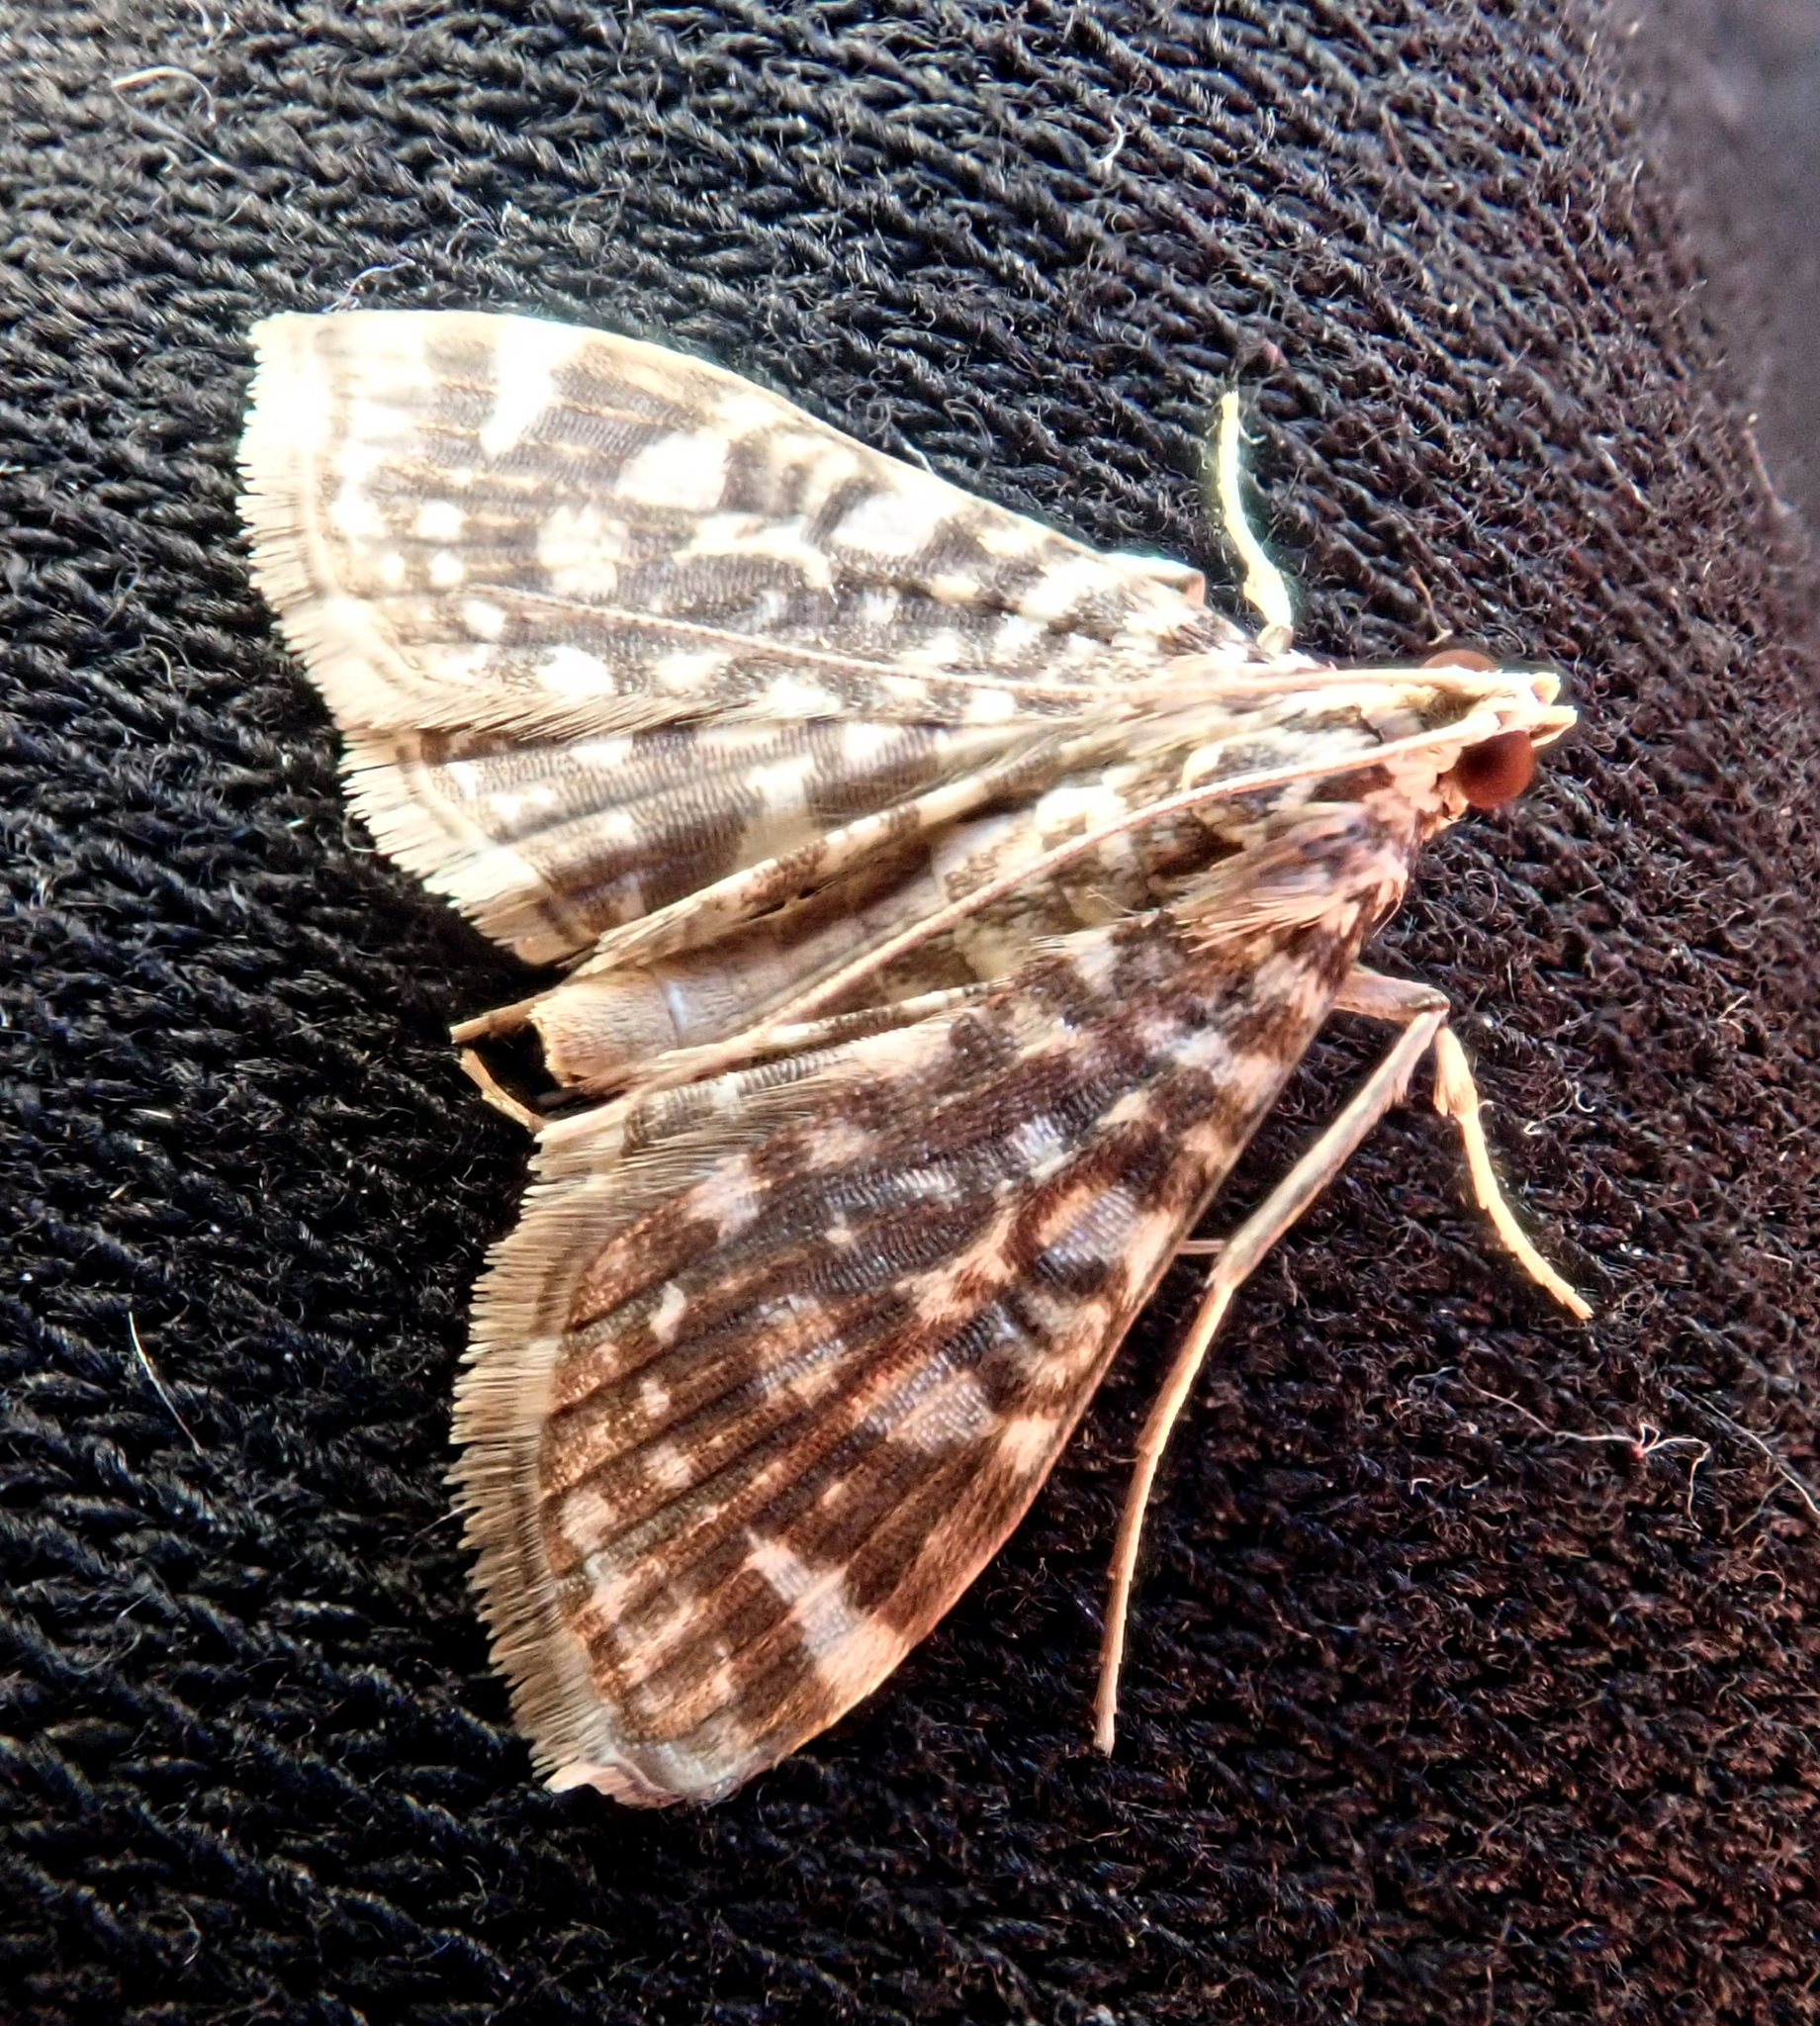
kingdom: Animalia
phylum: Arthropoda
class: Insecta
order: Lepidoptera
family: Crambidae
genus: Glyphodes
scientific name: Glyphodes onychinalis
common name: Swan plant moth
